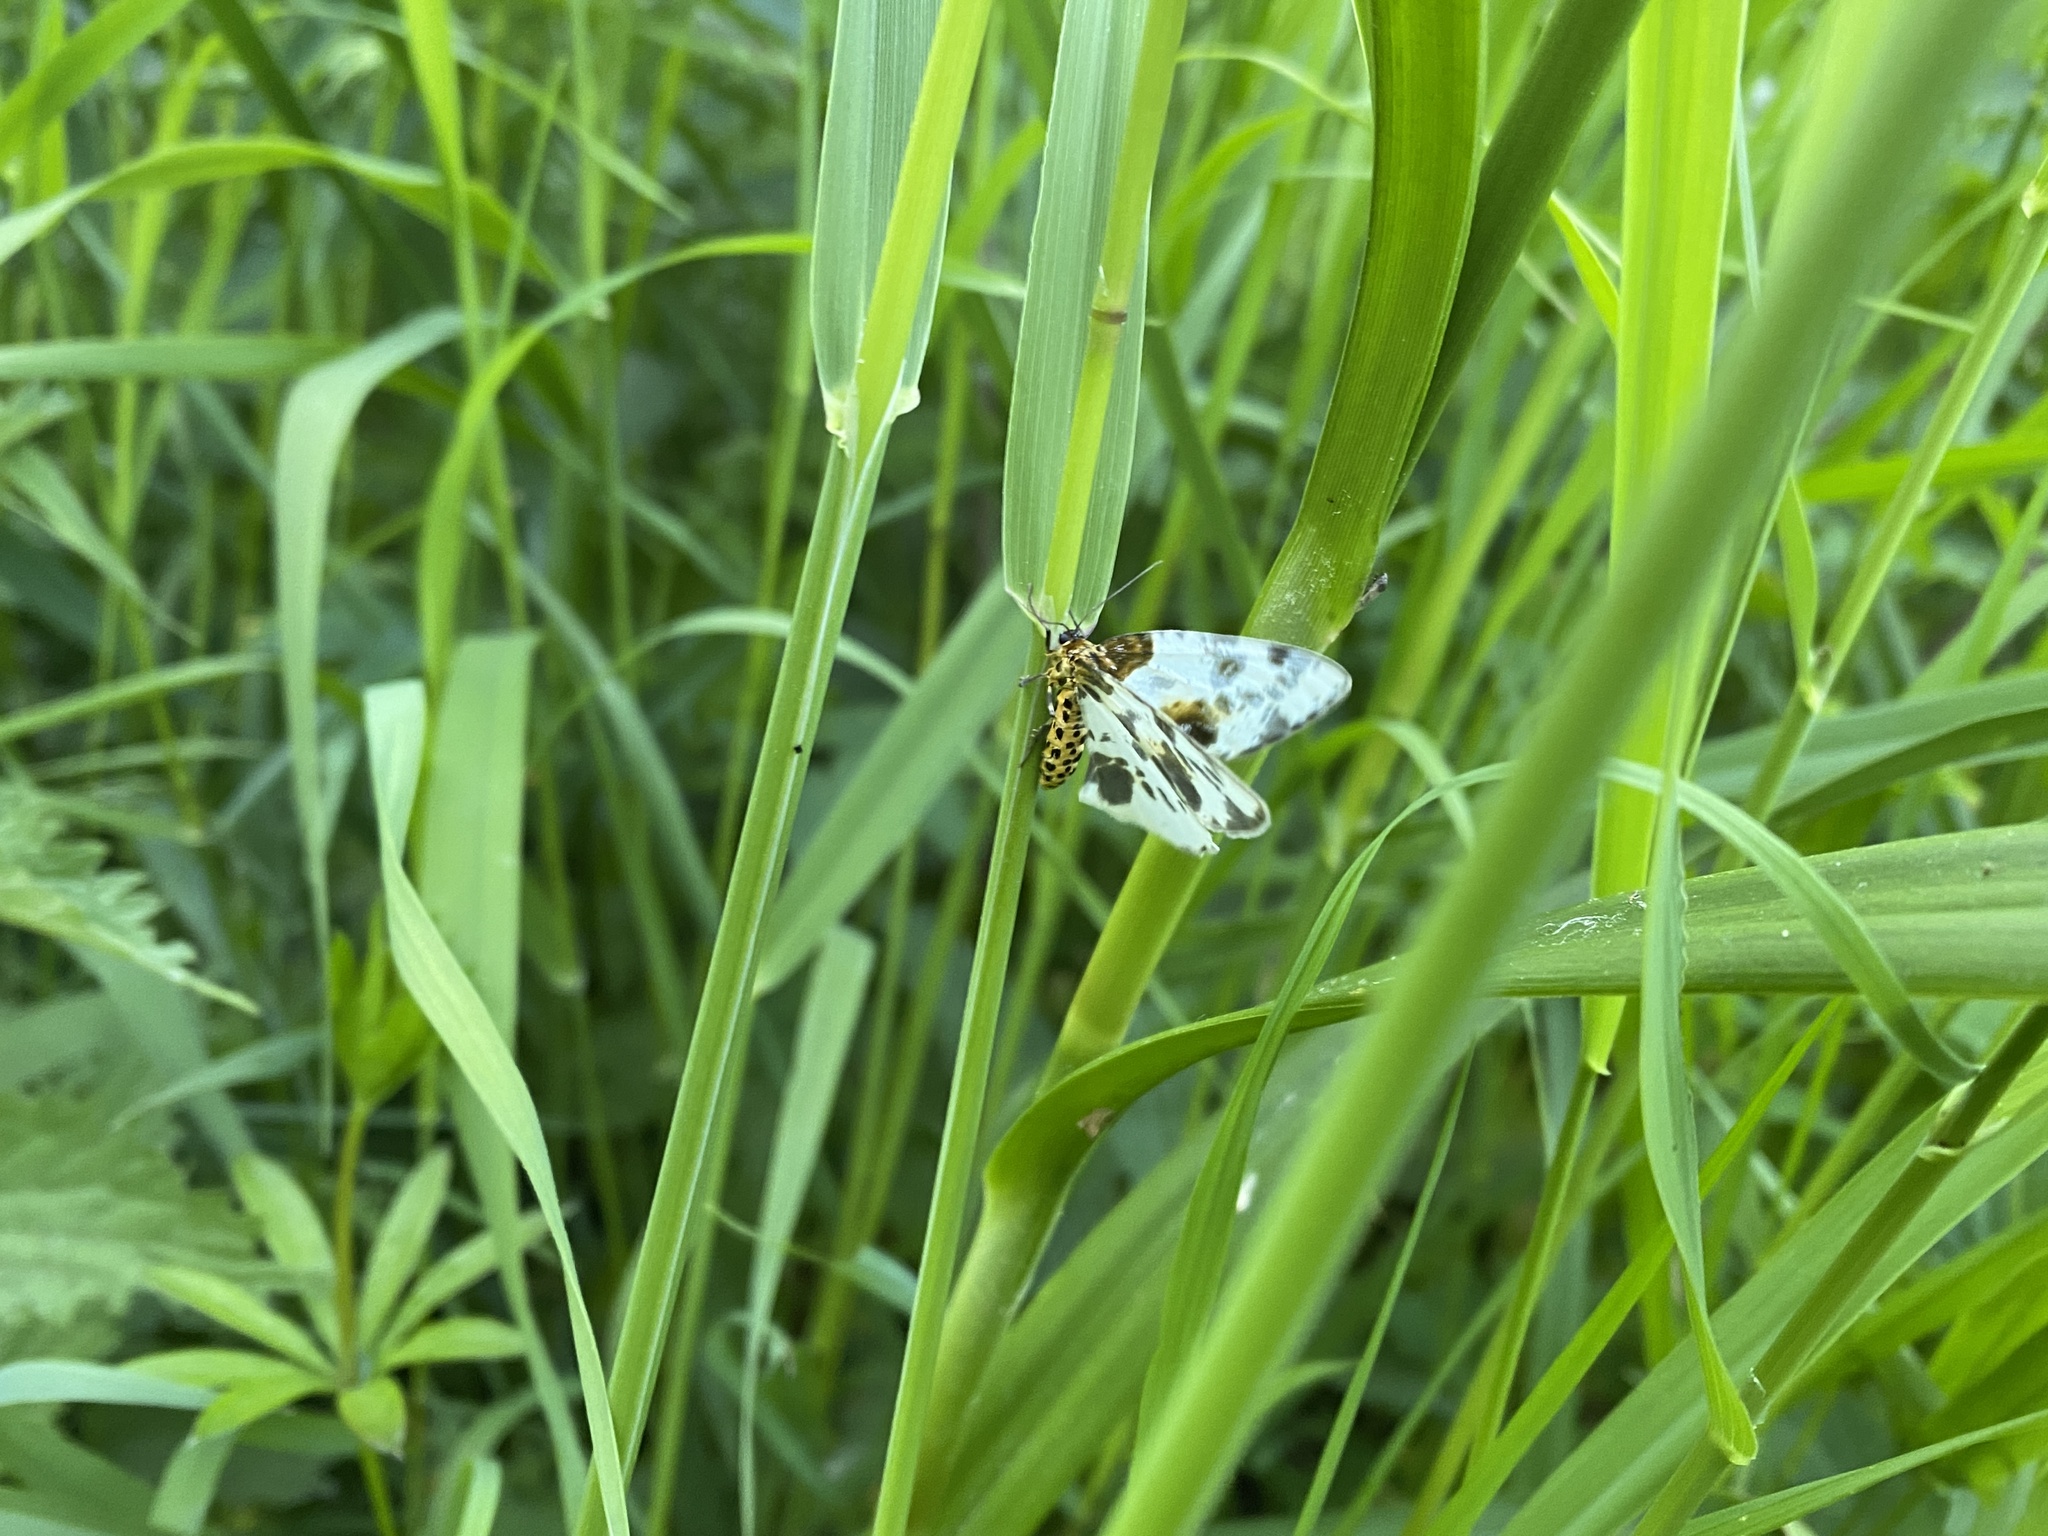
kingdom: Animalia
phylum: Arthropoda
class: Insecta
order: Lepidoptera
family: Geometridae
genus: Abraxas
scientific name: Abraxas sylvata
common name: Clouded magpie
